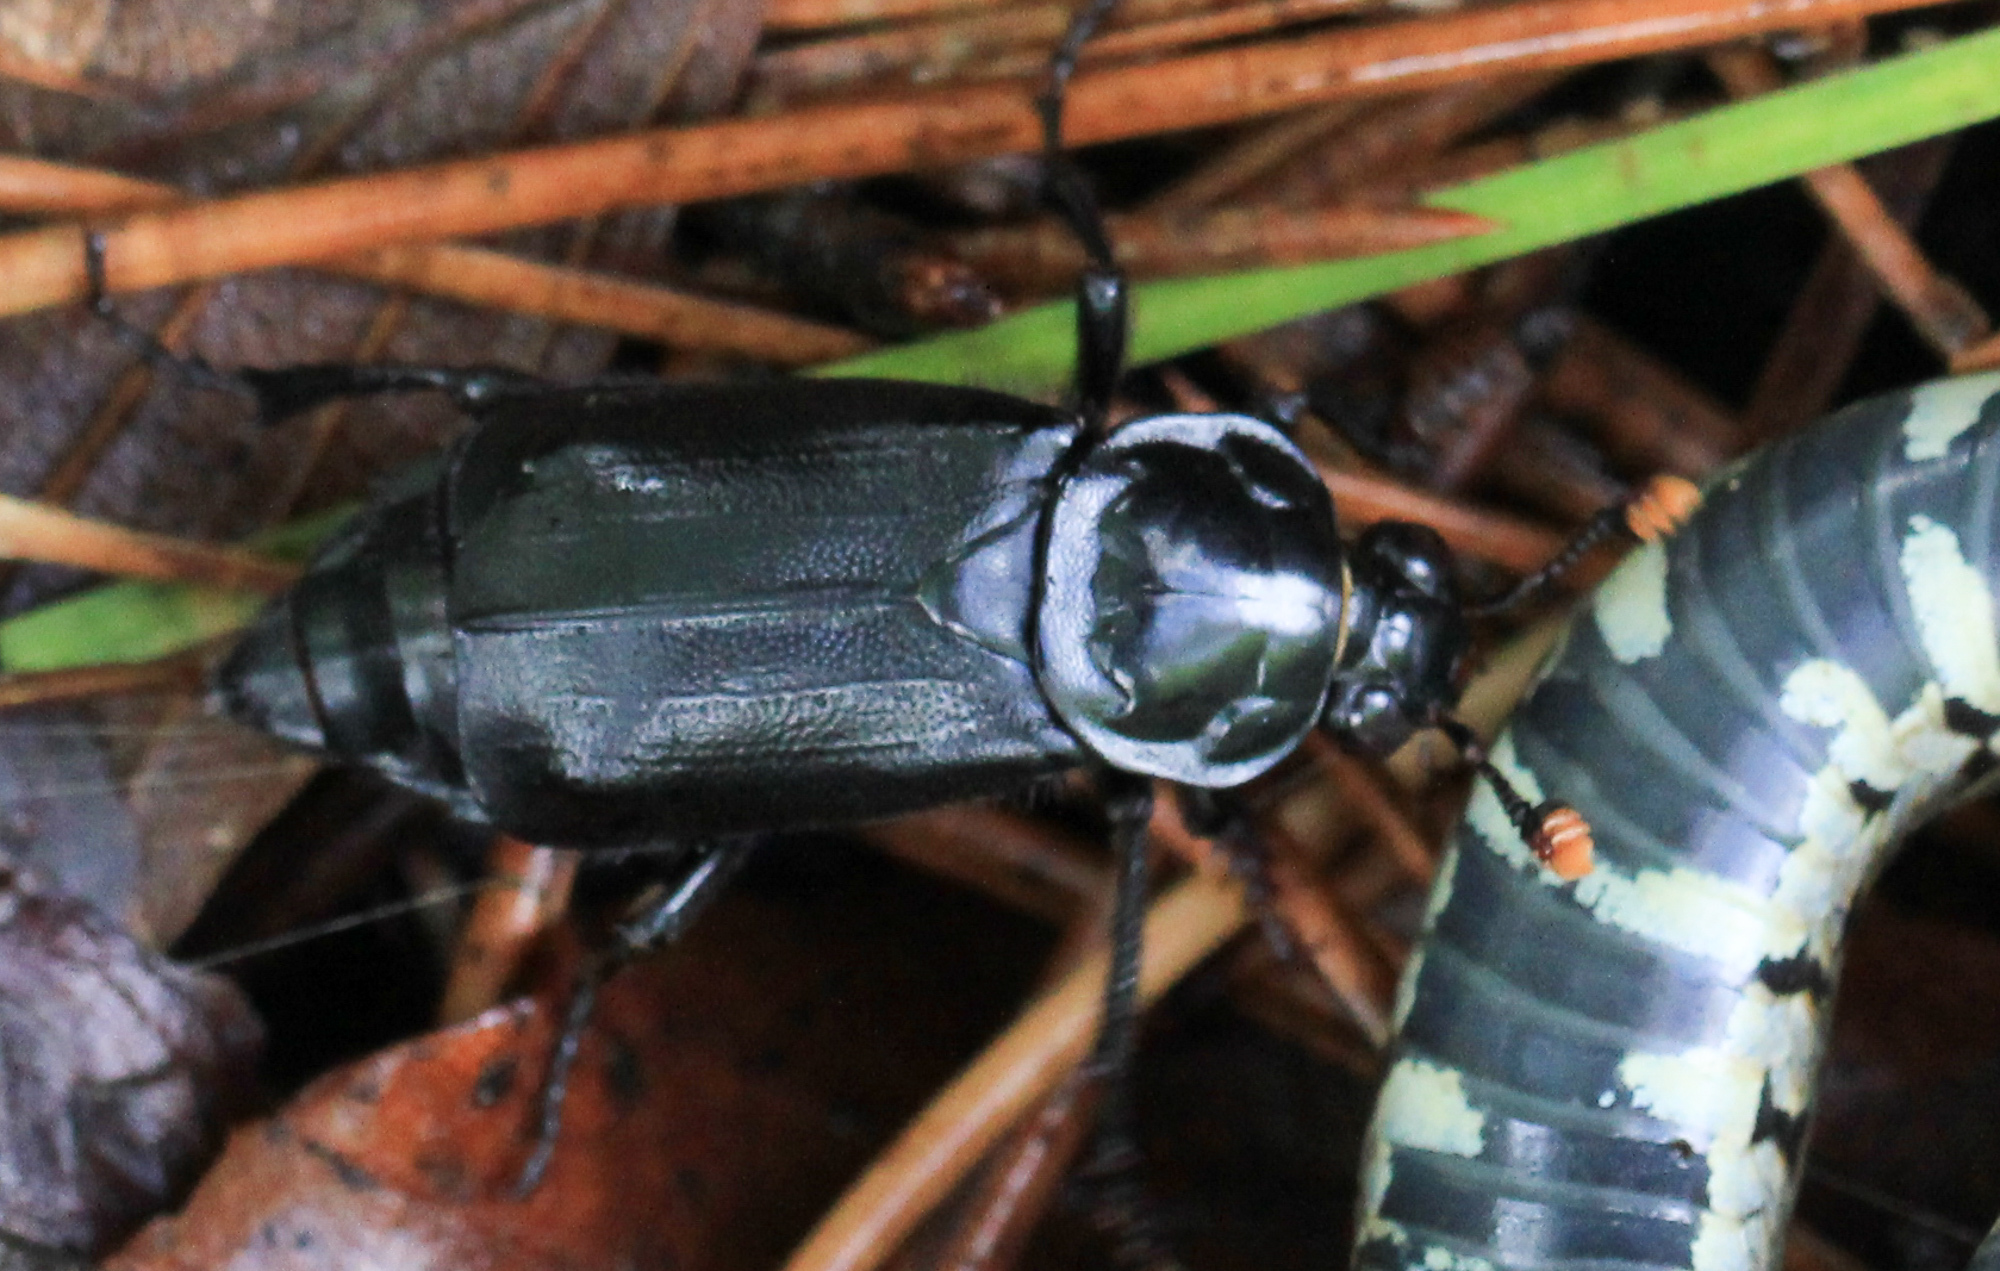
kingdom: Animalia
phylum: Arthropoda
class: Insecta
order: Coleoptera
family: Staphylinidae
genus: Nicrophorus
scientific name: Nicrophorus humator
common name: Black sexton beetle
